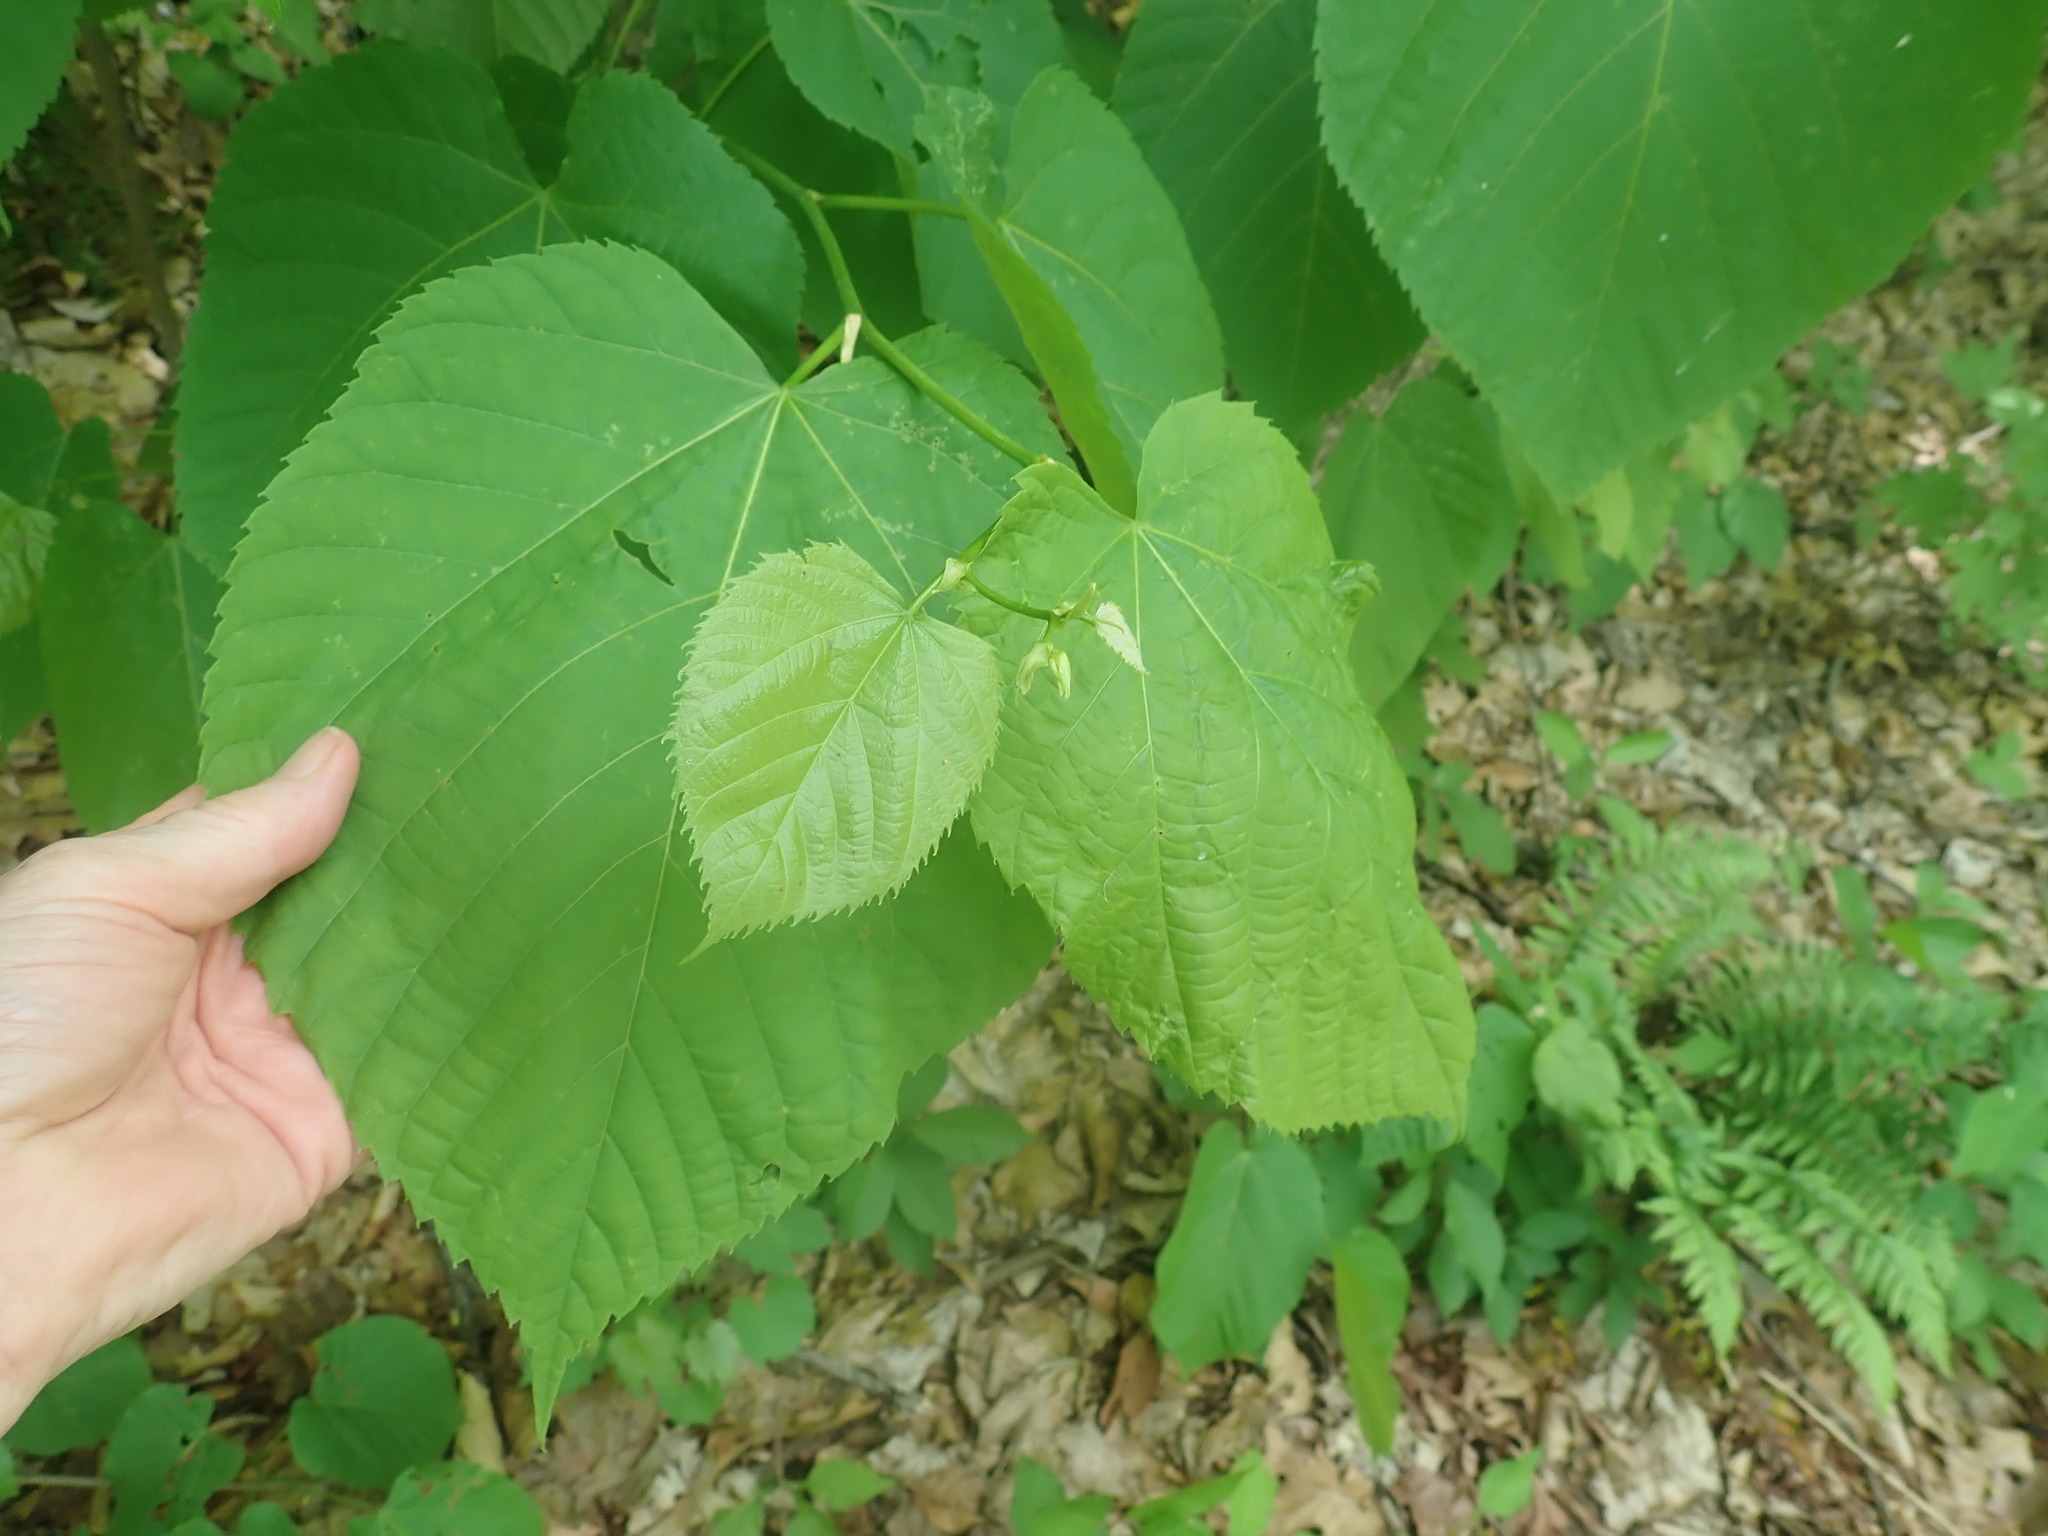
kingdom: Plantae
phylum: Tracheophyta
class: Magnoliopsida
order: Malvales
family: Malvaceae
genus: Tilia
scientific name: Tilia americana
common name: Basswood
